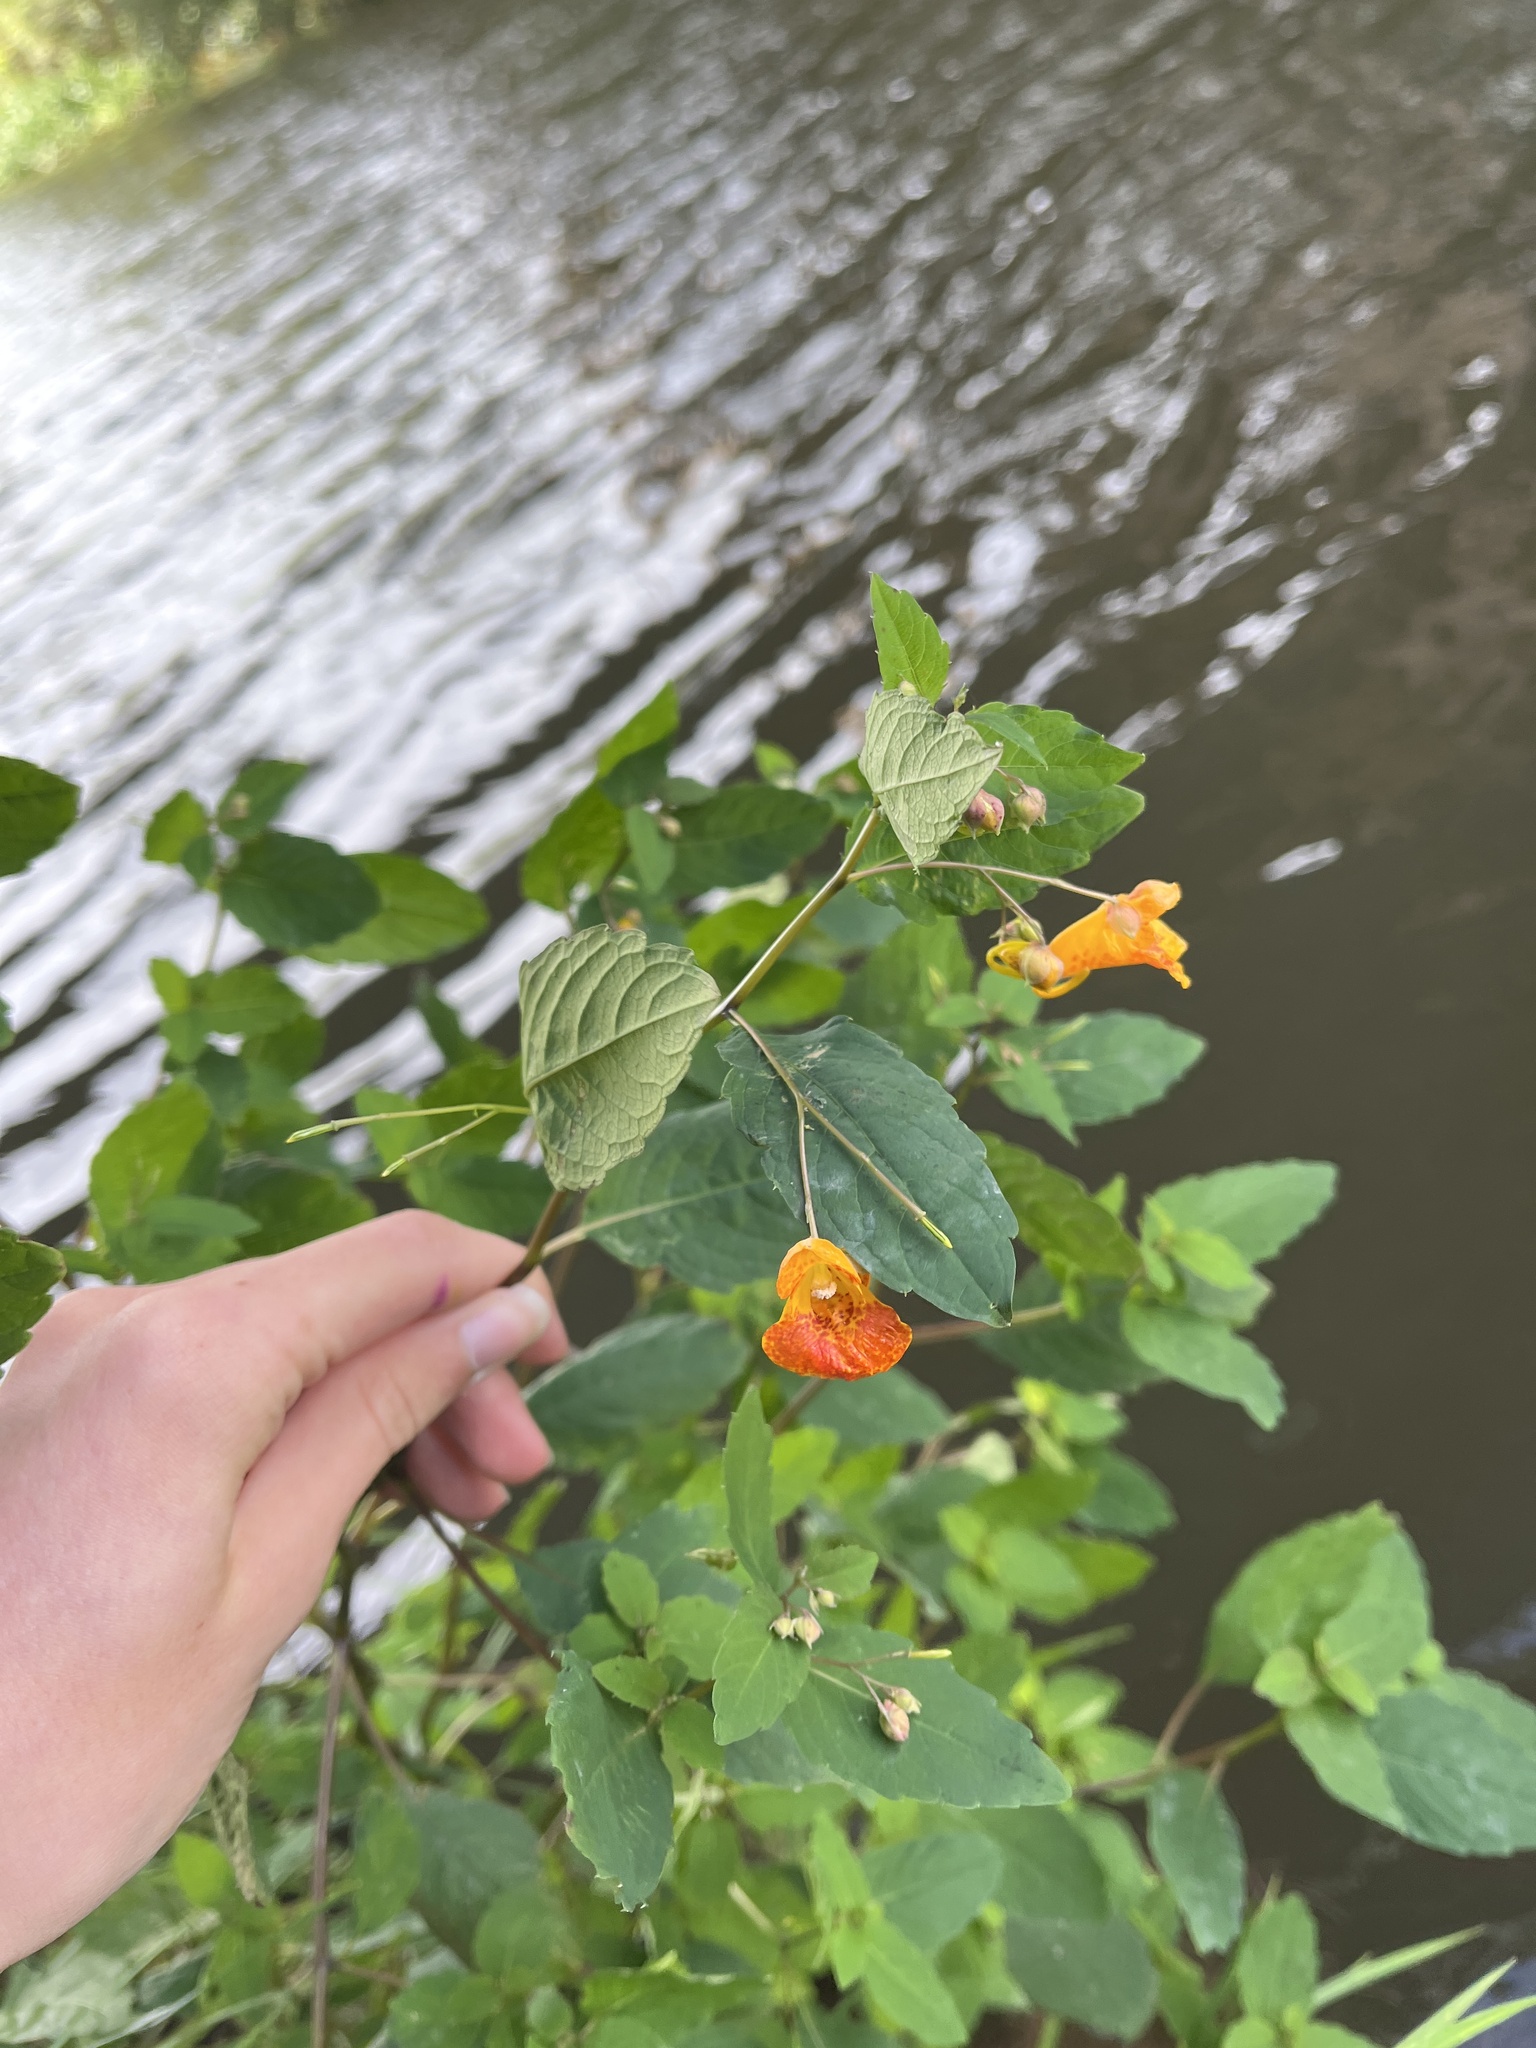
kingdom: Plantae
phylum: Tracheophyta
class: Magnoliopsida
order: Ericales
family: Balsaminaceae
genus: Impatiens
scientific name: Impatiens capensis
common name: Orange balsam
